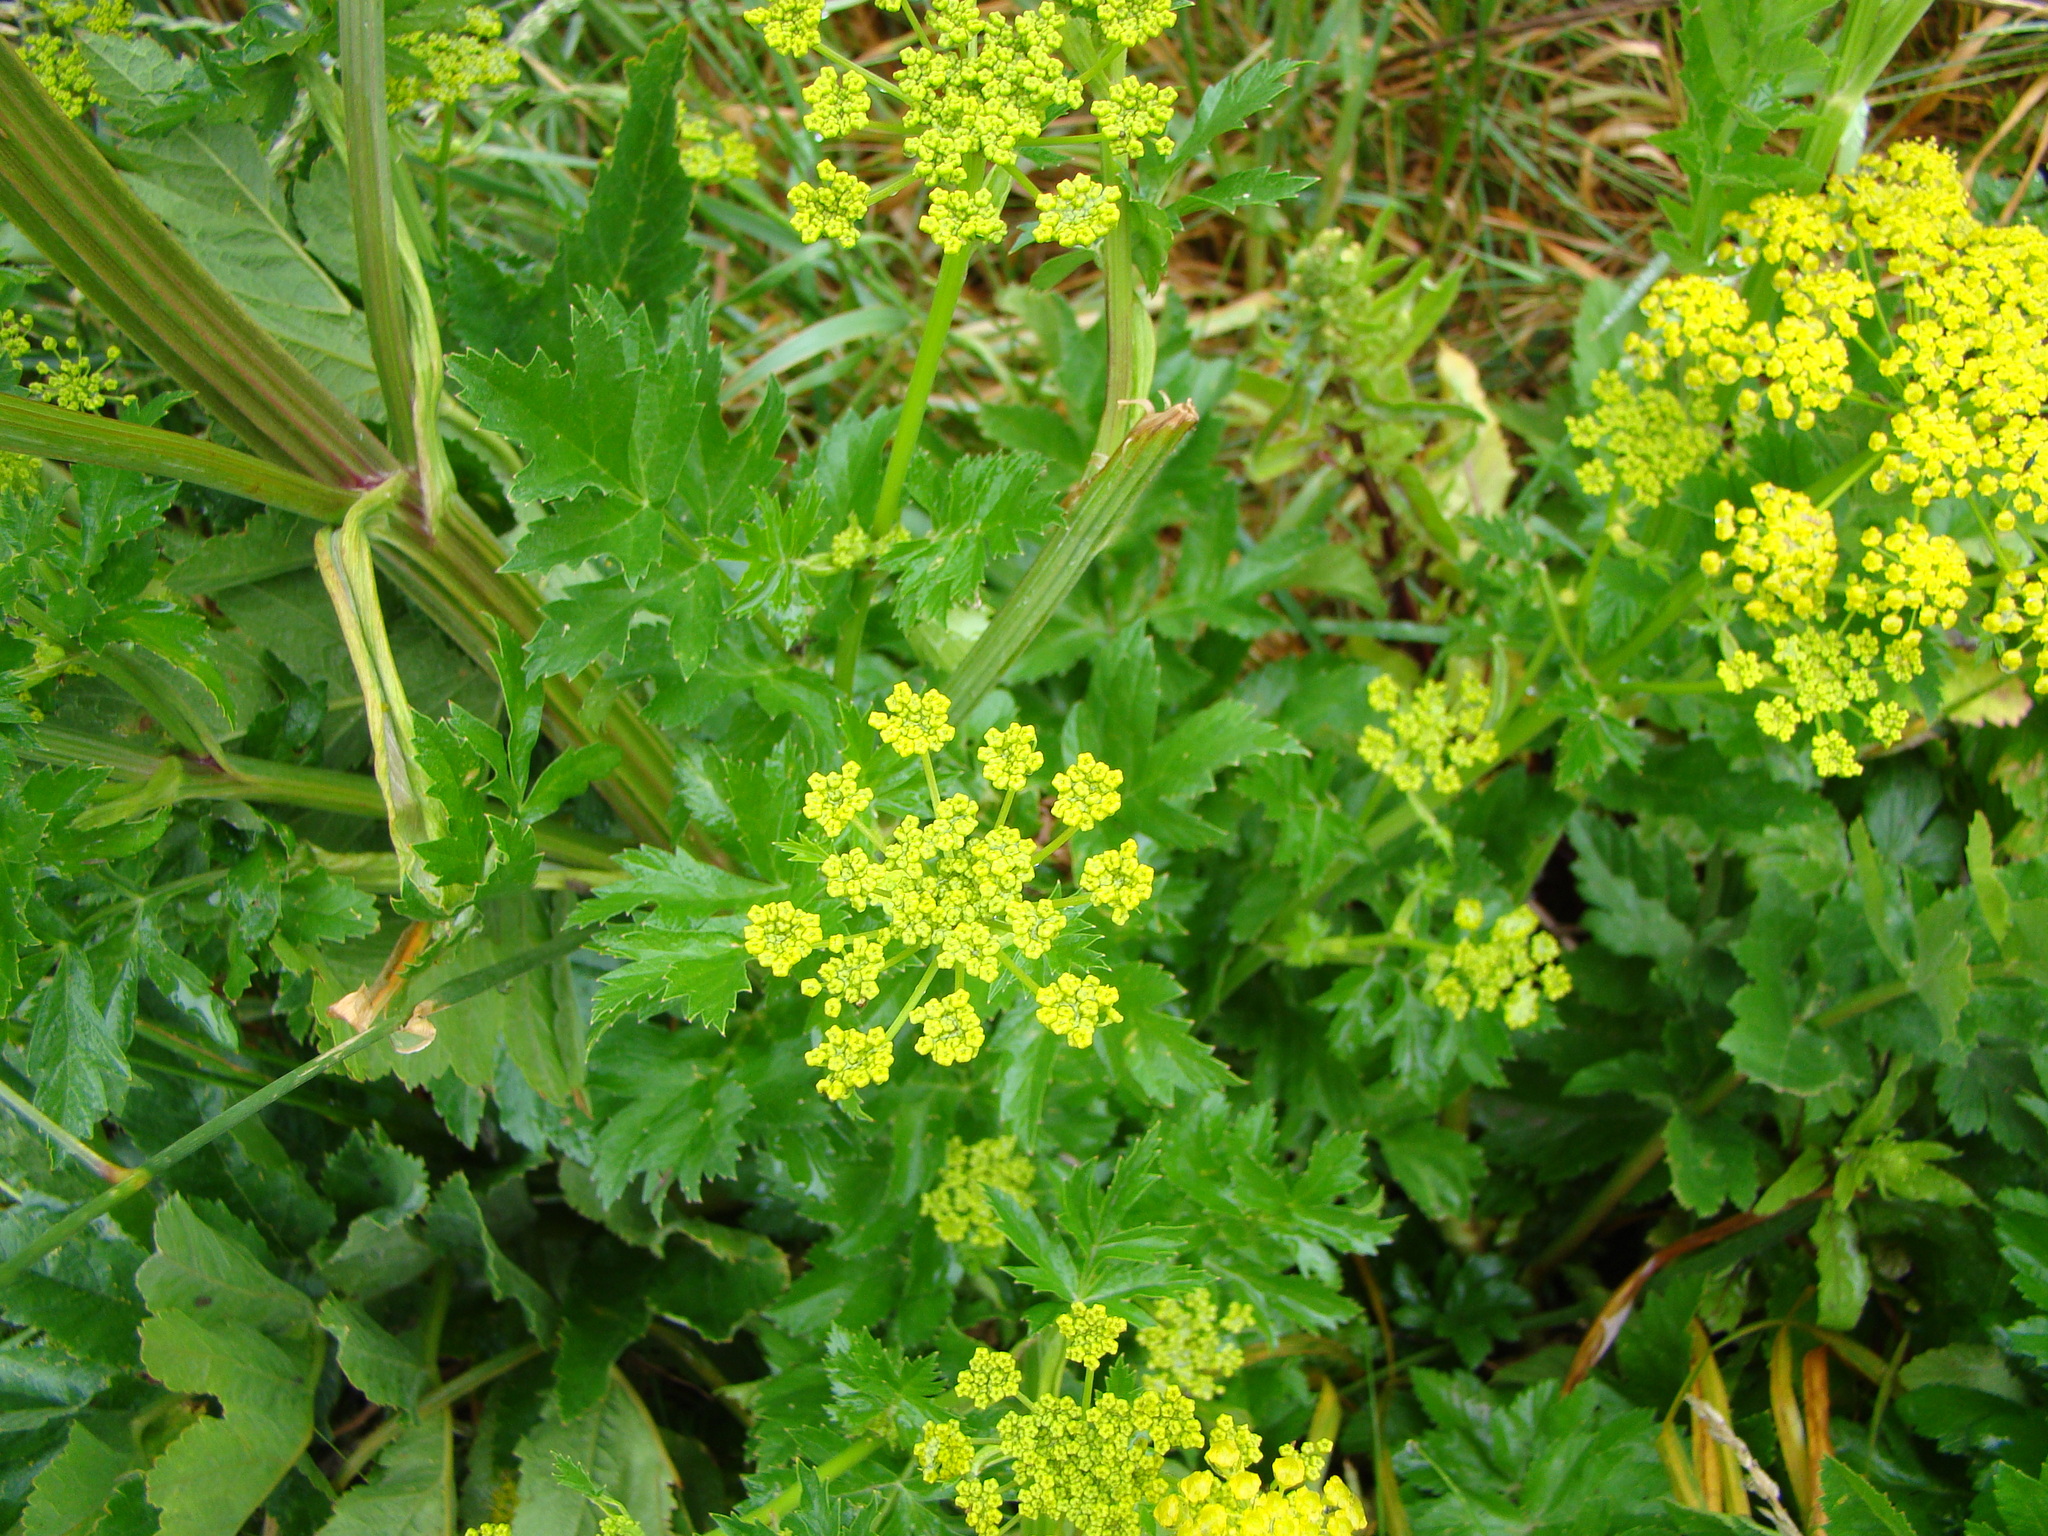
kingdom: Plantae
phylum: Tracheophyta
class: Magnoliopsida
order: Apiales
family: Apiaceae
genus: Pastinaca
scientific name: Pastinaca sativa
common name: Wild parsnip
